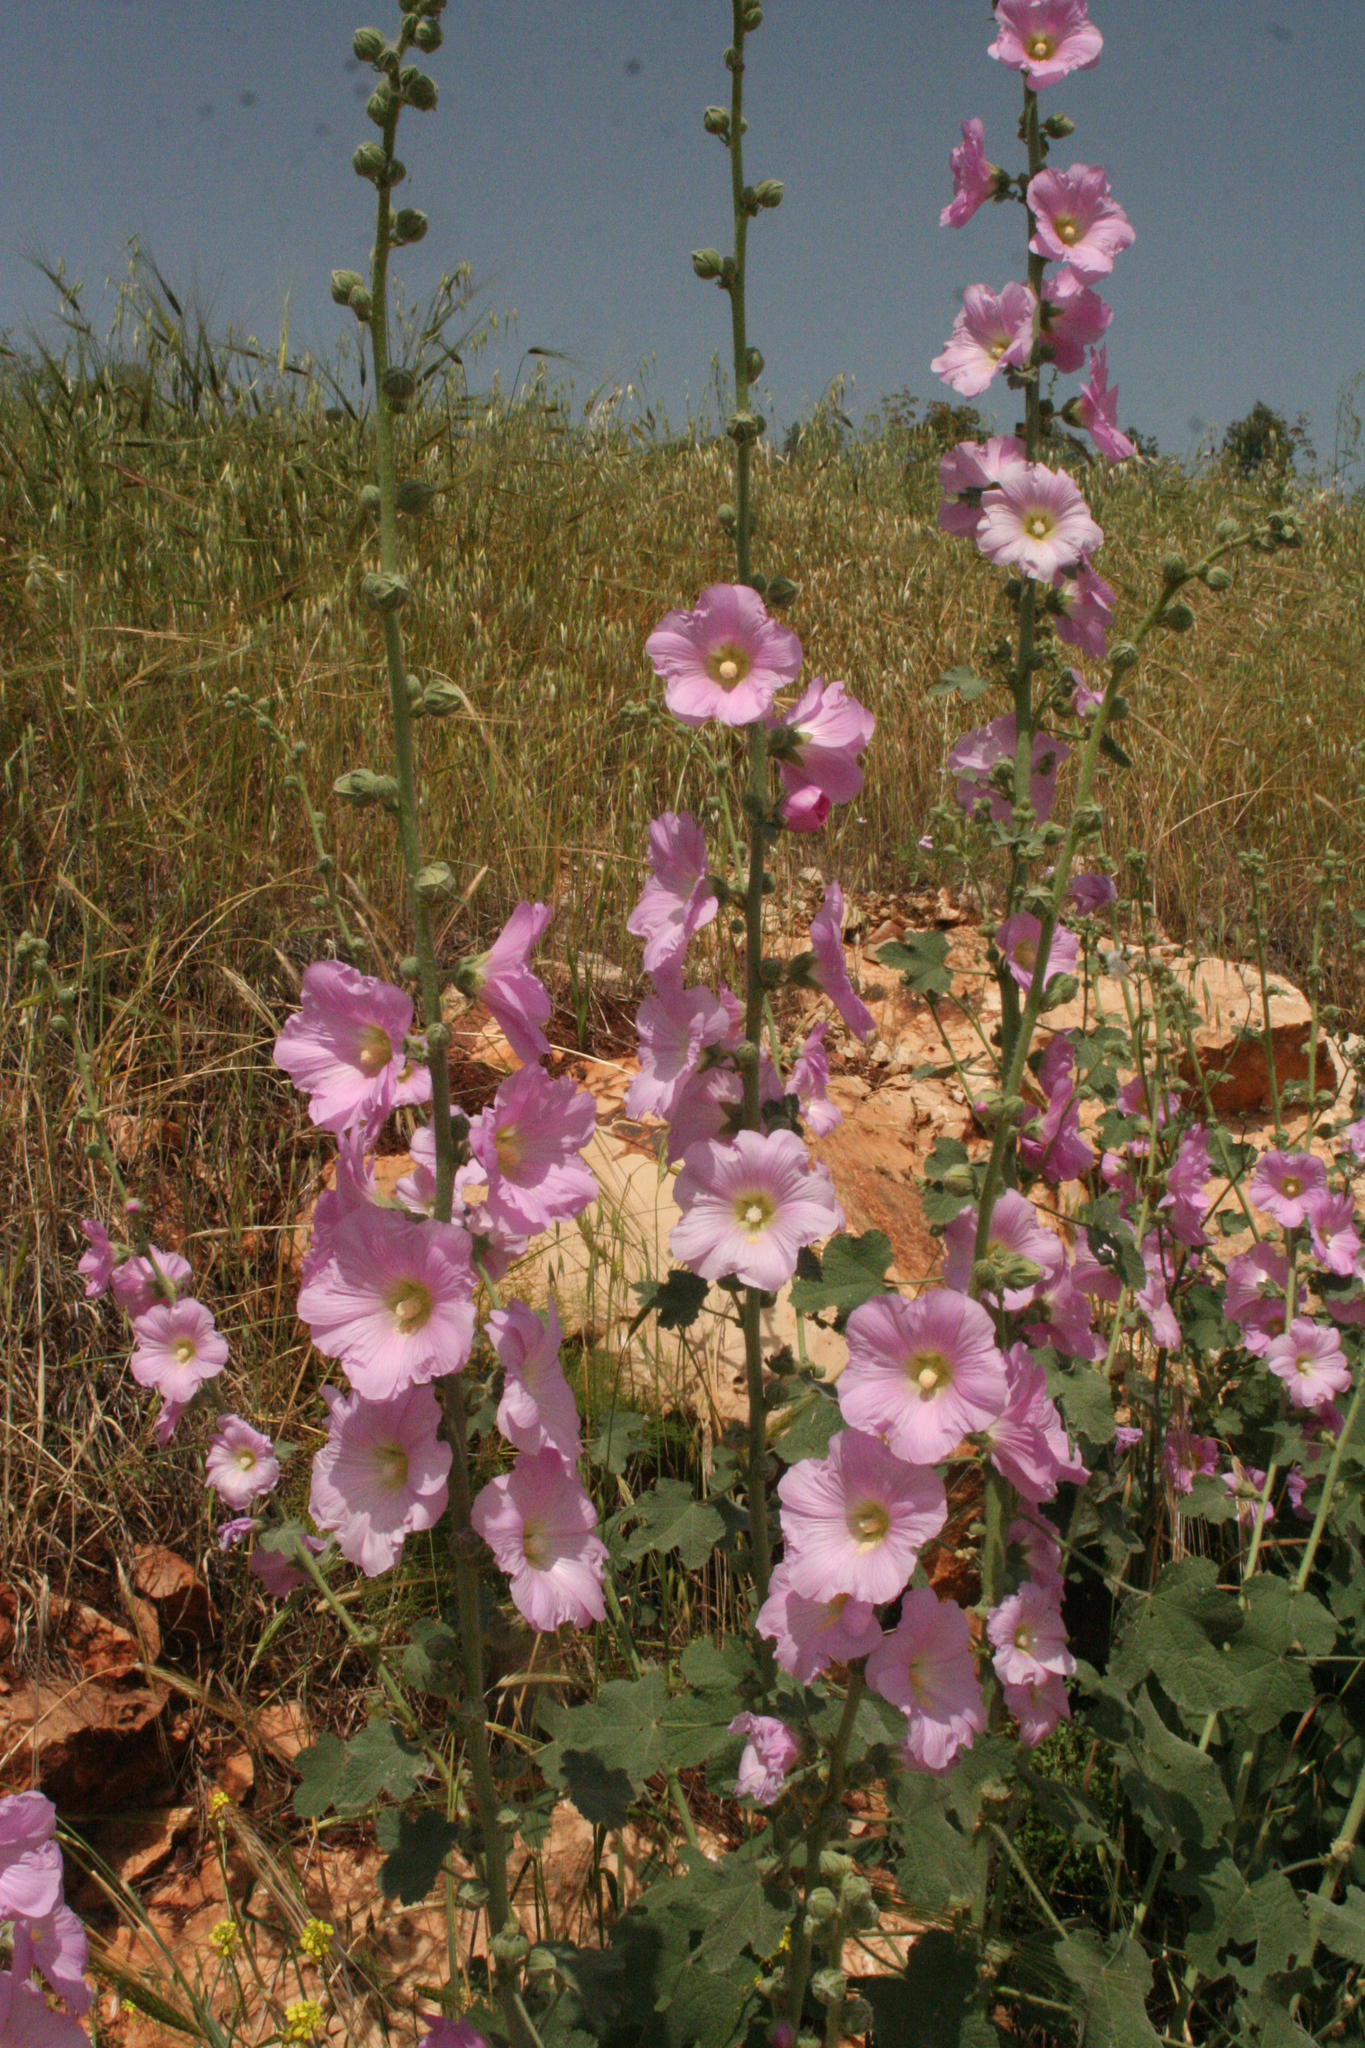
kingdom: Plantae
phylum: Tracheophyta
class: Magnoliopsida
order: Malvales
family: Malvaceae
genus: Alcea
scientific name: Alcea setosa
